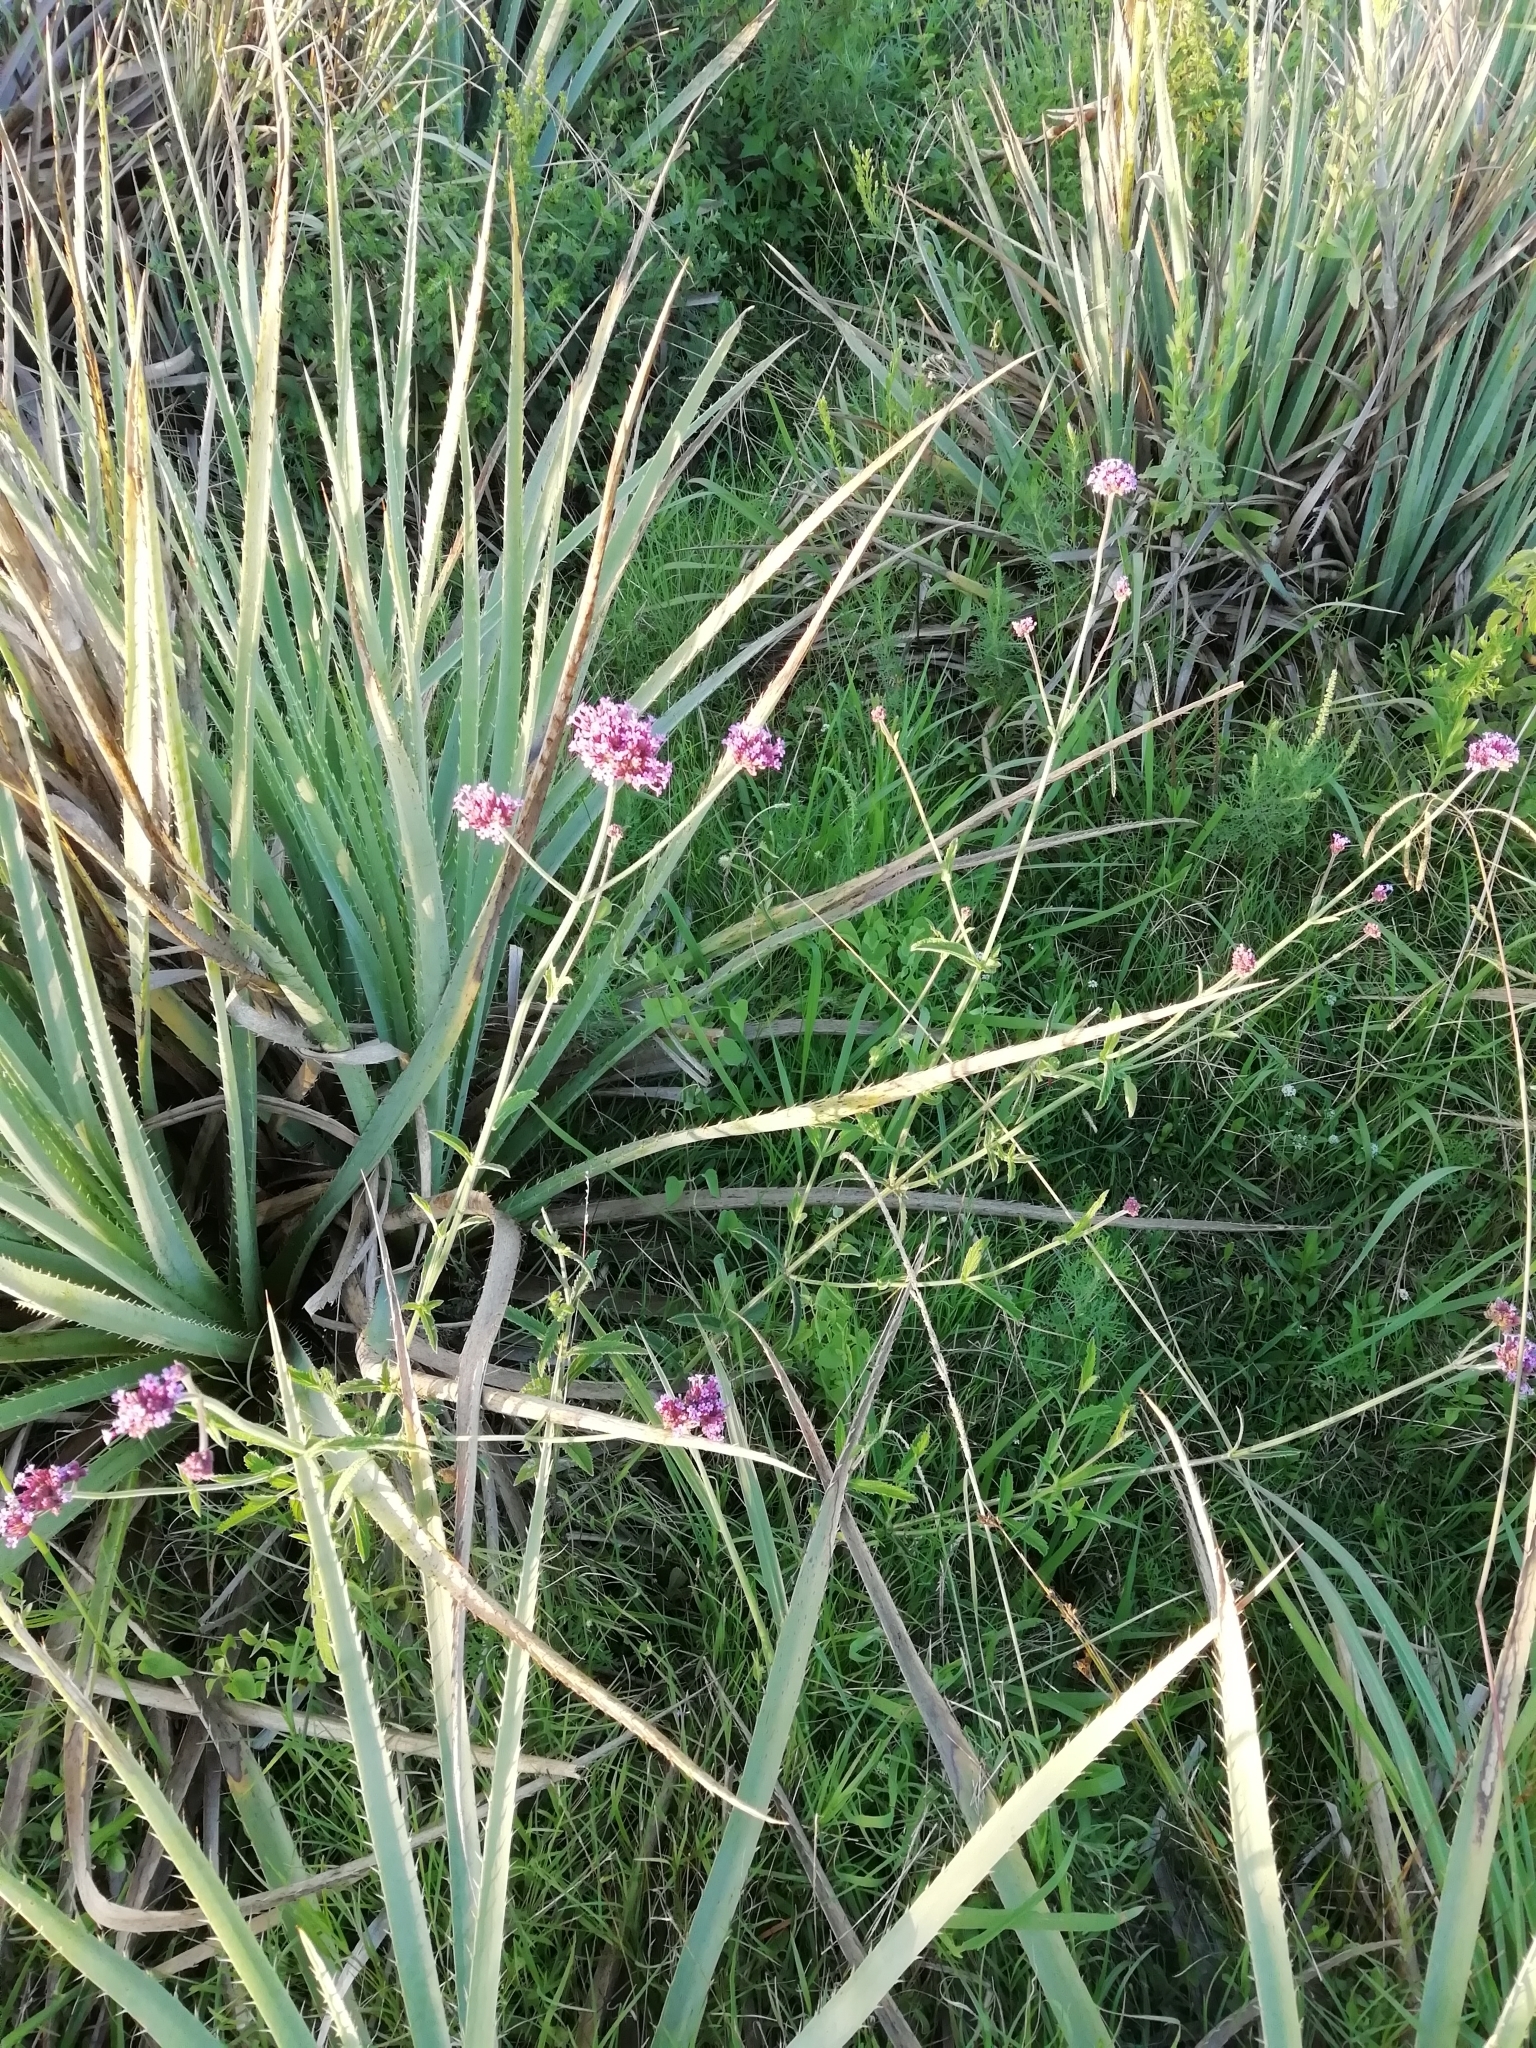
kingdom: Plantae
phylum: Tracheophyta
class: Magnoliopsida
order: Lamiales
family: Verbenaceae
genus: Verbena
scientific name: Verbena bonariensis
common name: Purpletop vervain
